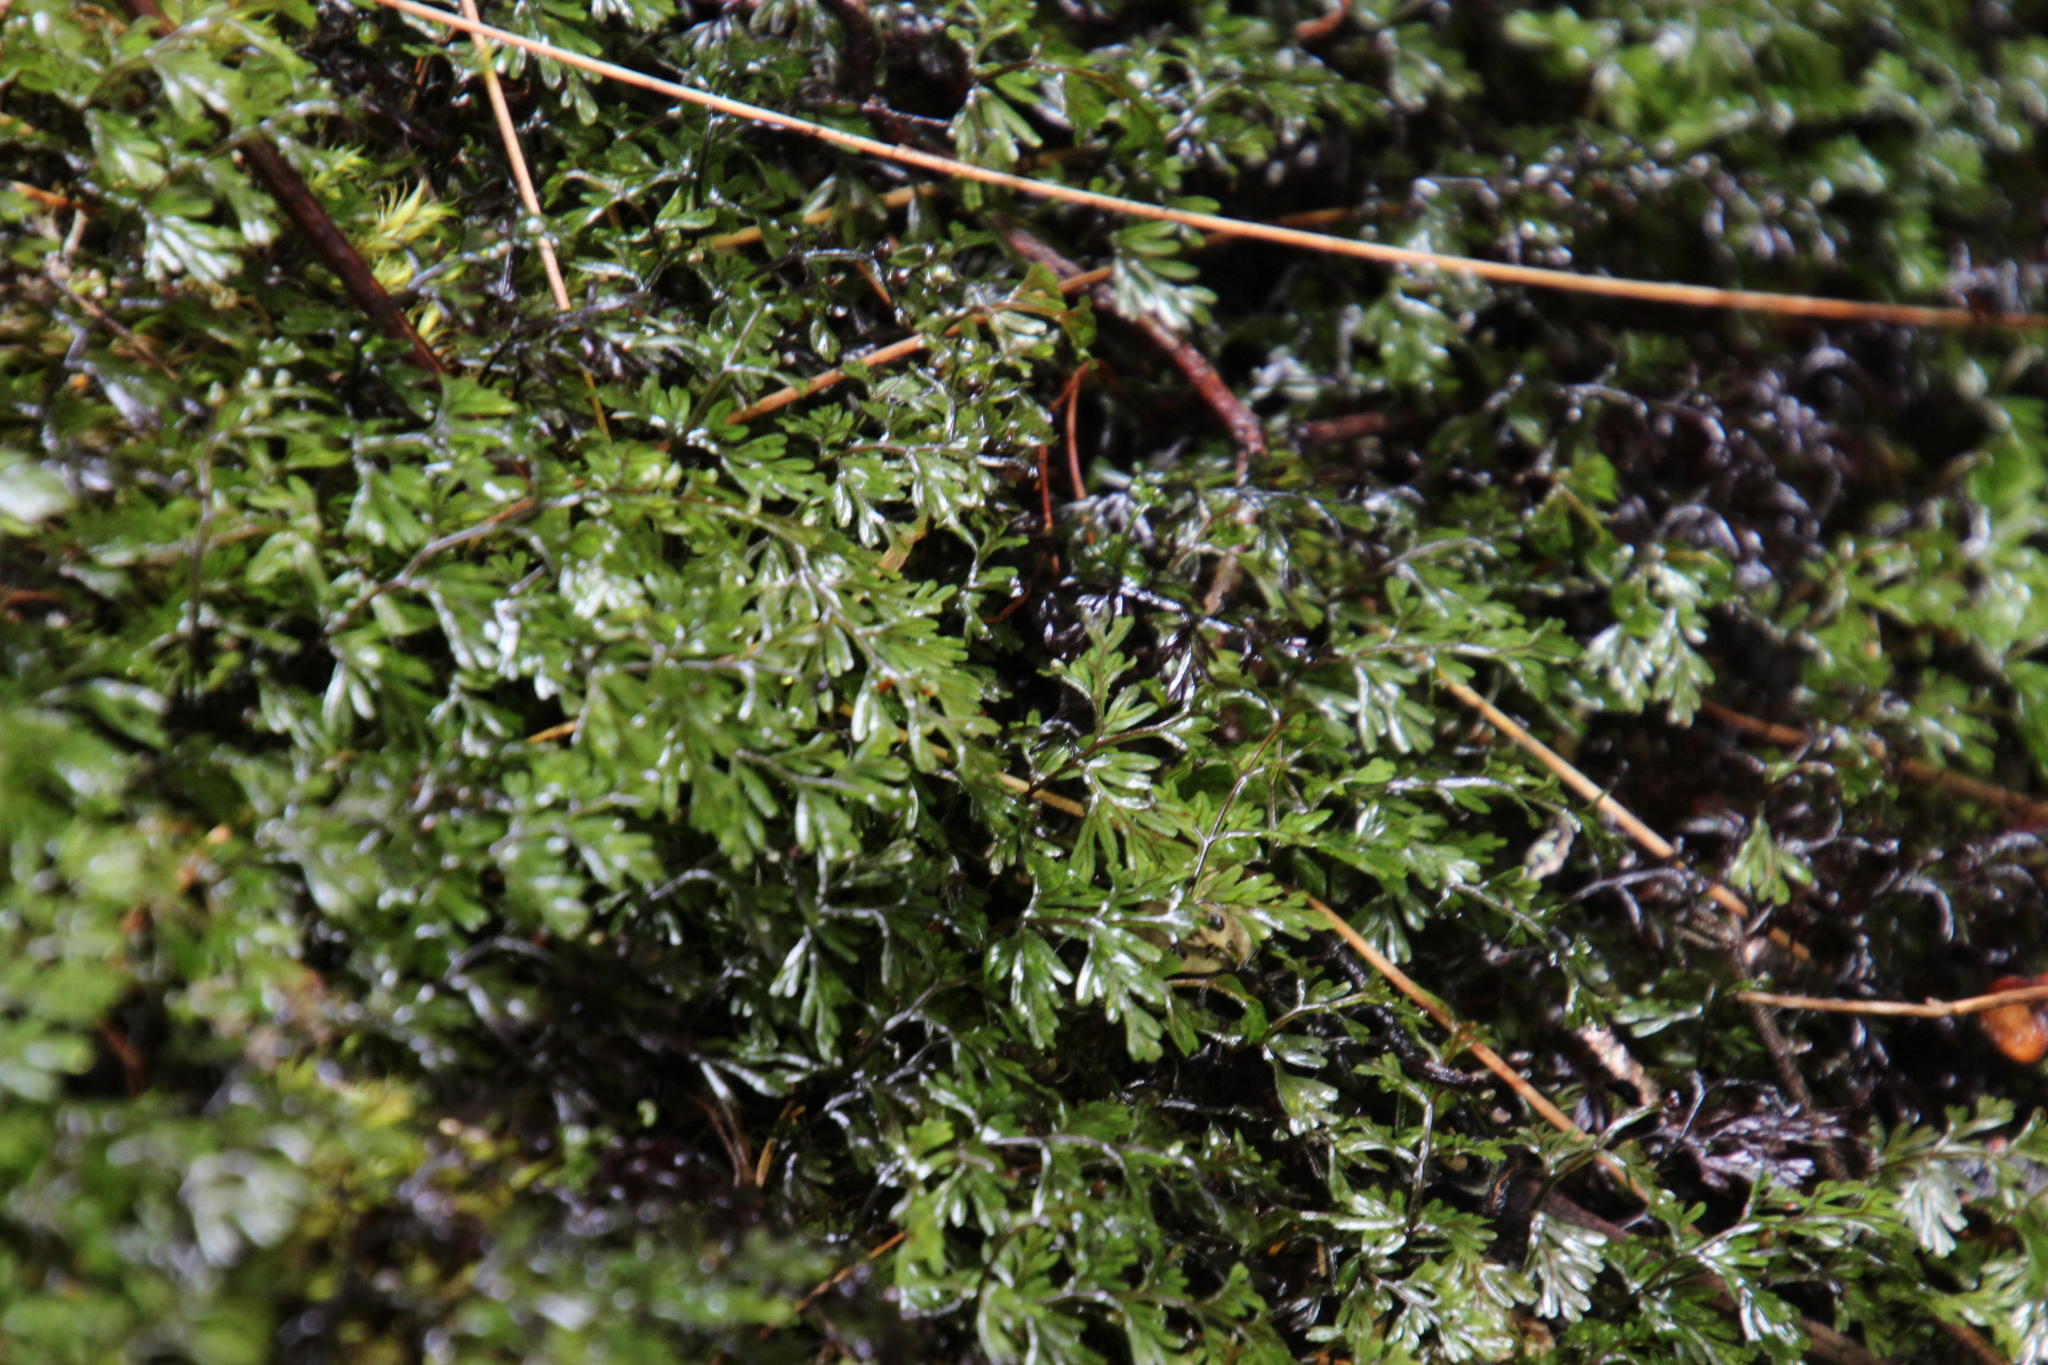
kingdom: Plantae
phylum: Tracheophyta
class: Polypodiopsida
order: Hymenophyllales
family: Hymenophyllaceae
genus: Hymenophyllum
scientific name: Hymenophyllum capense
